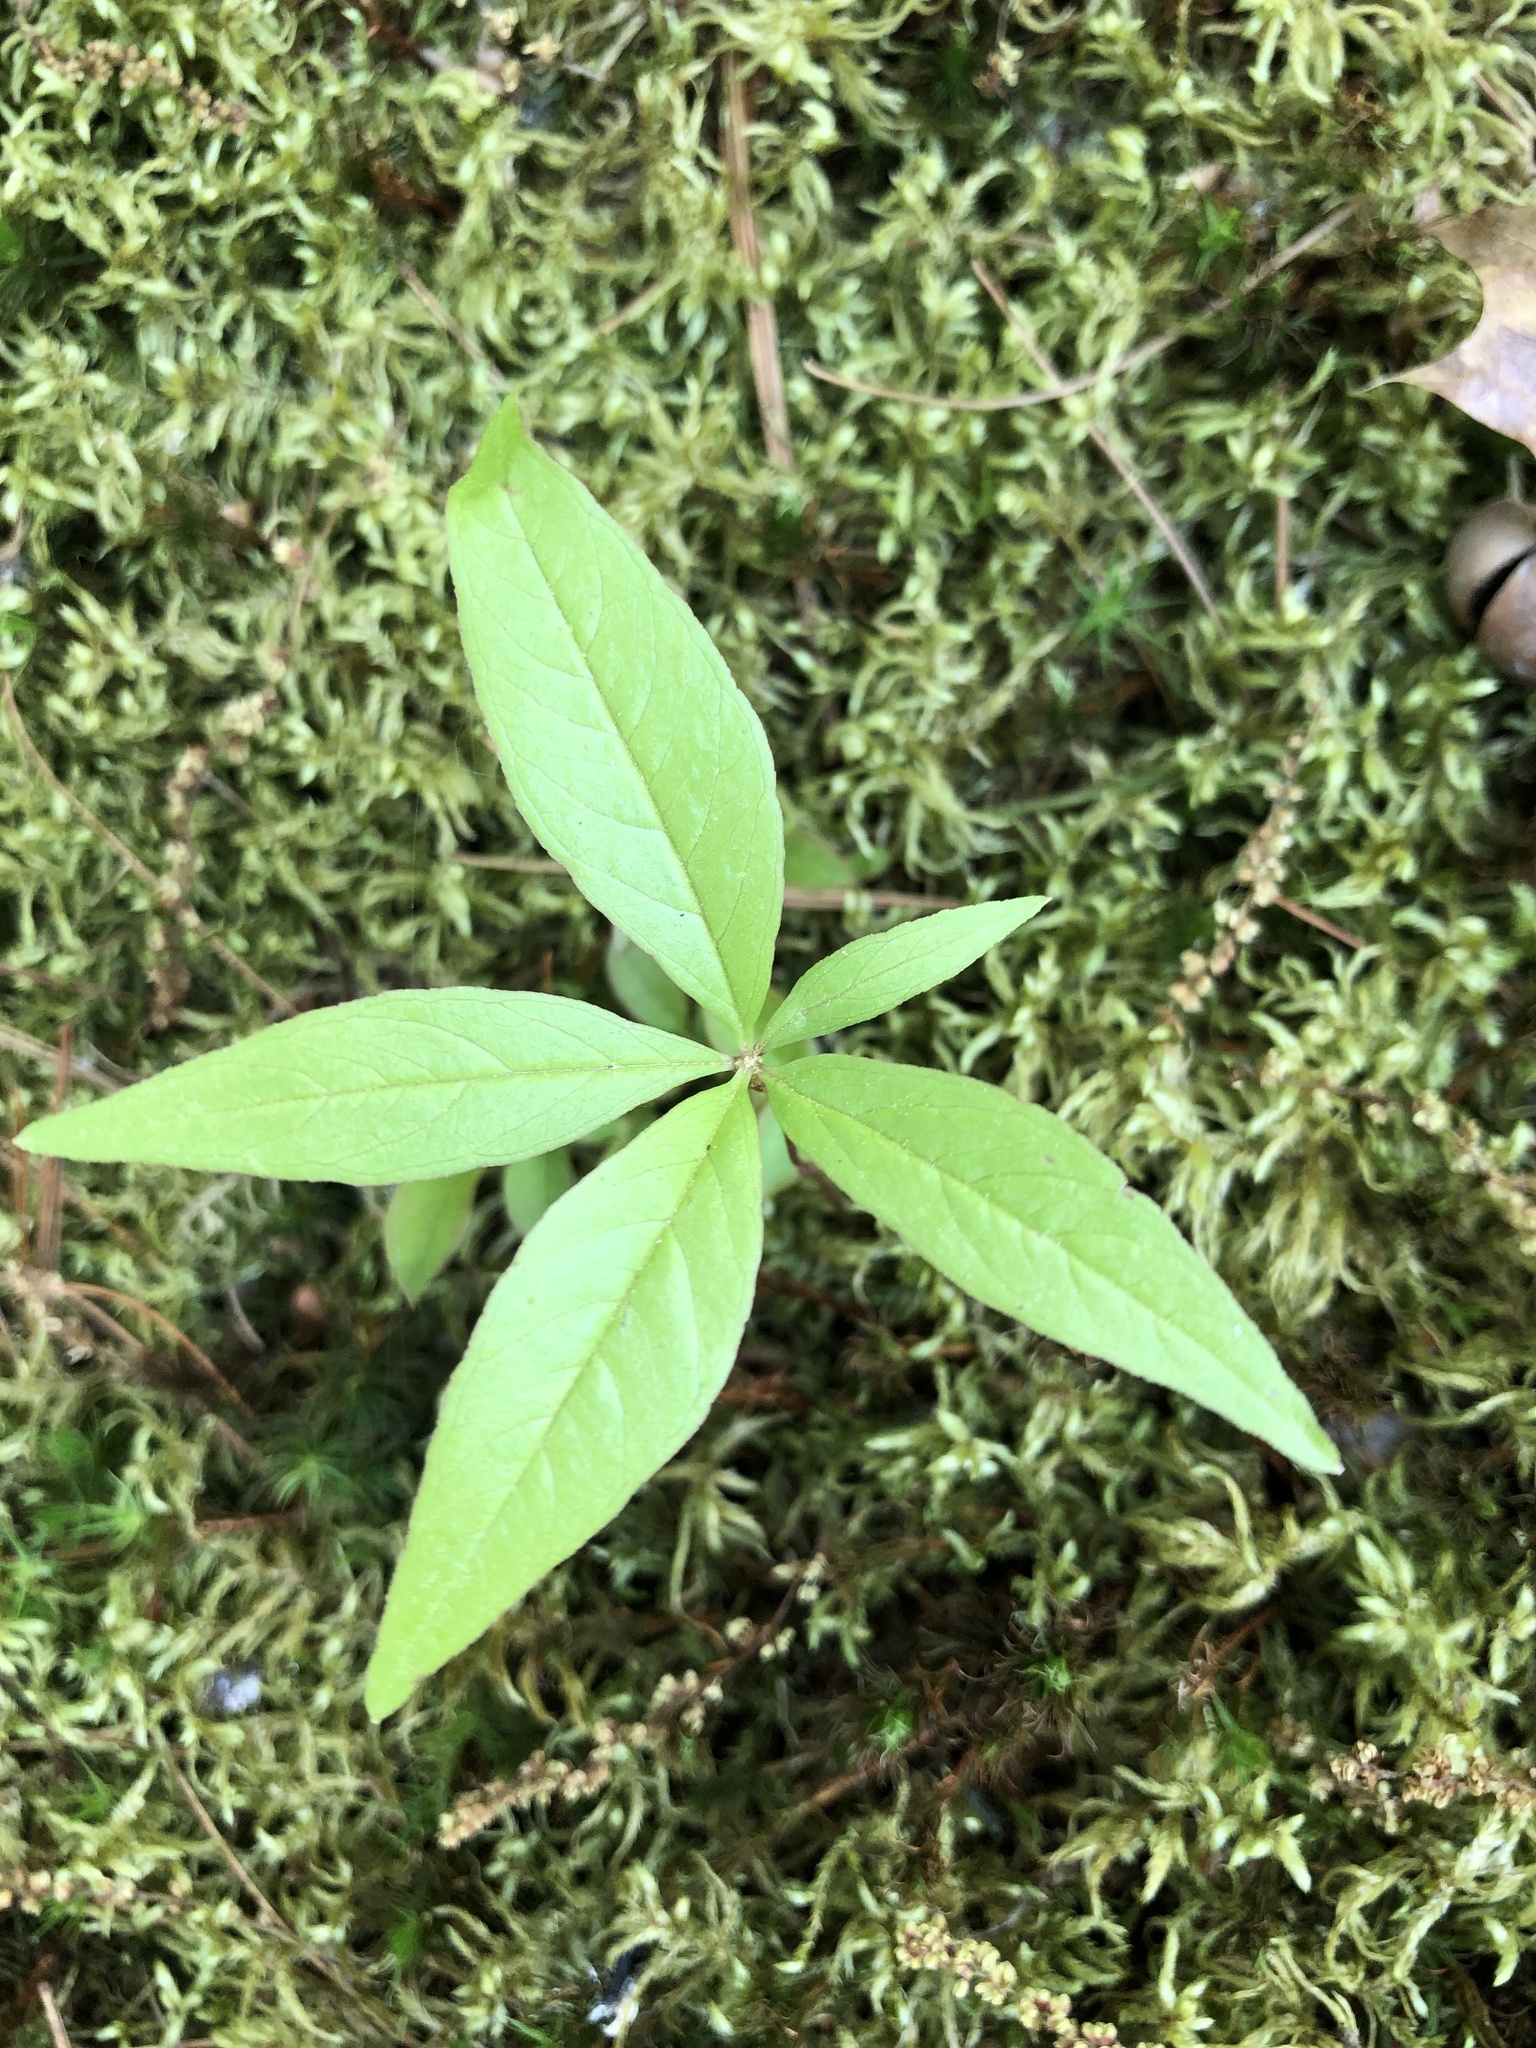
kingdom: Plantae
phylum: Tracheophyta
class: Magnoliopsida
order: Ericales
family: Primulaceae
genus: Lysimachia
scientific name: Lysimachia borealis
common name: American starflower
